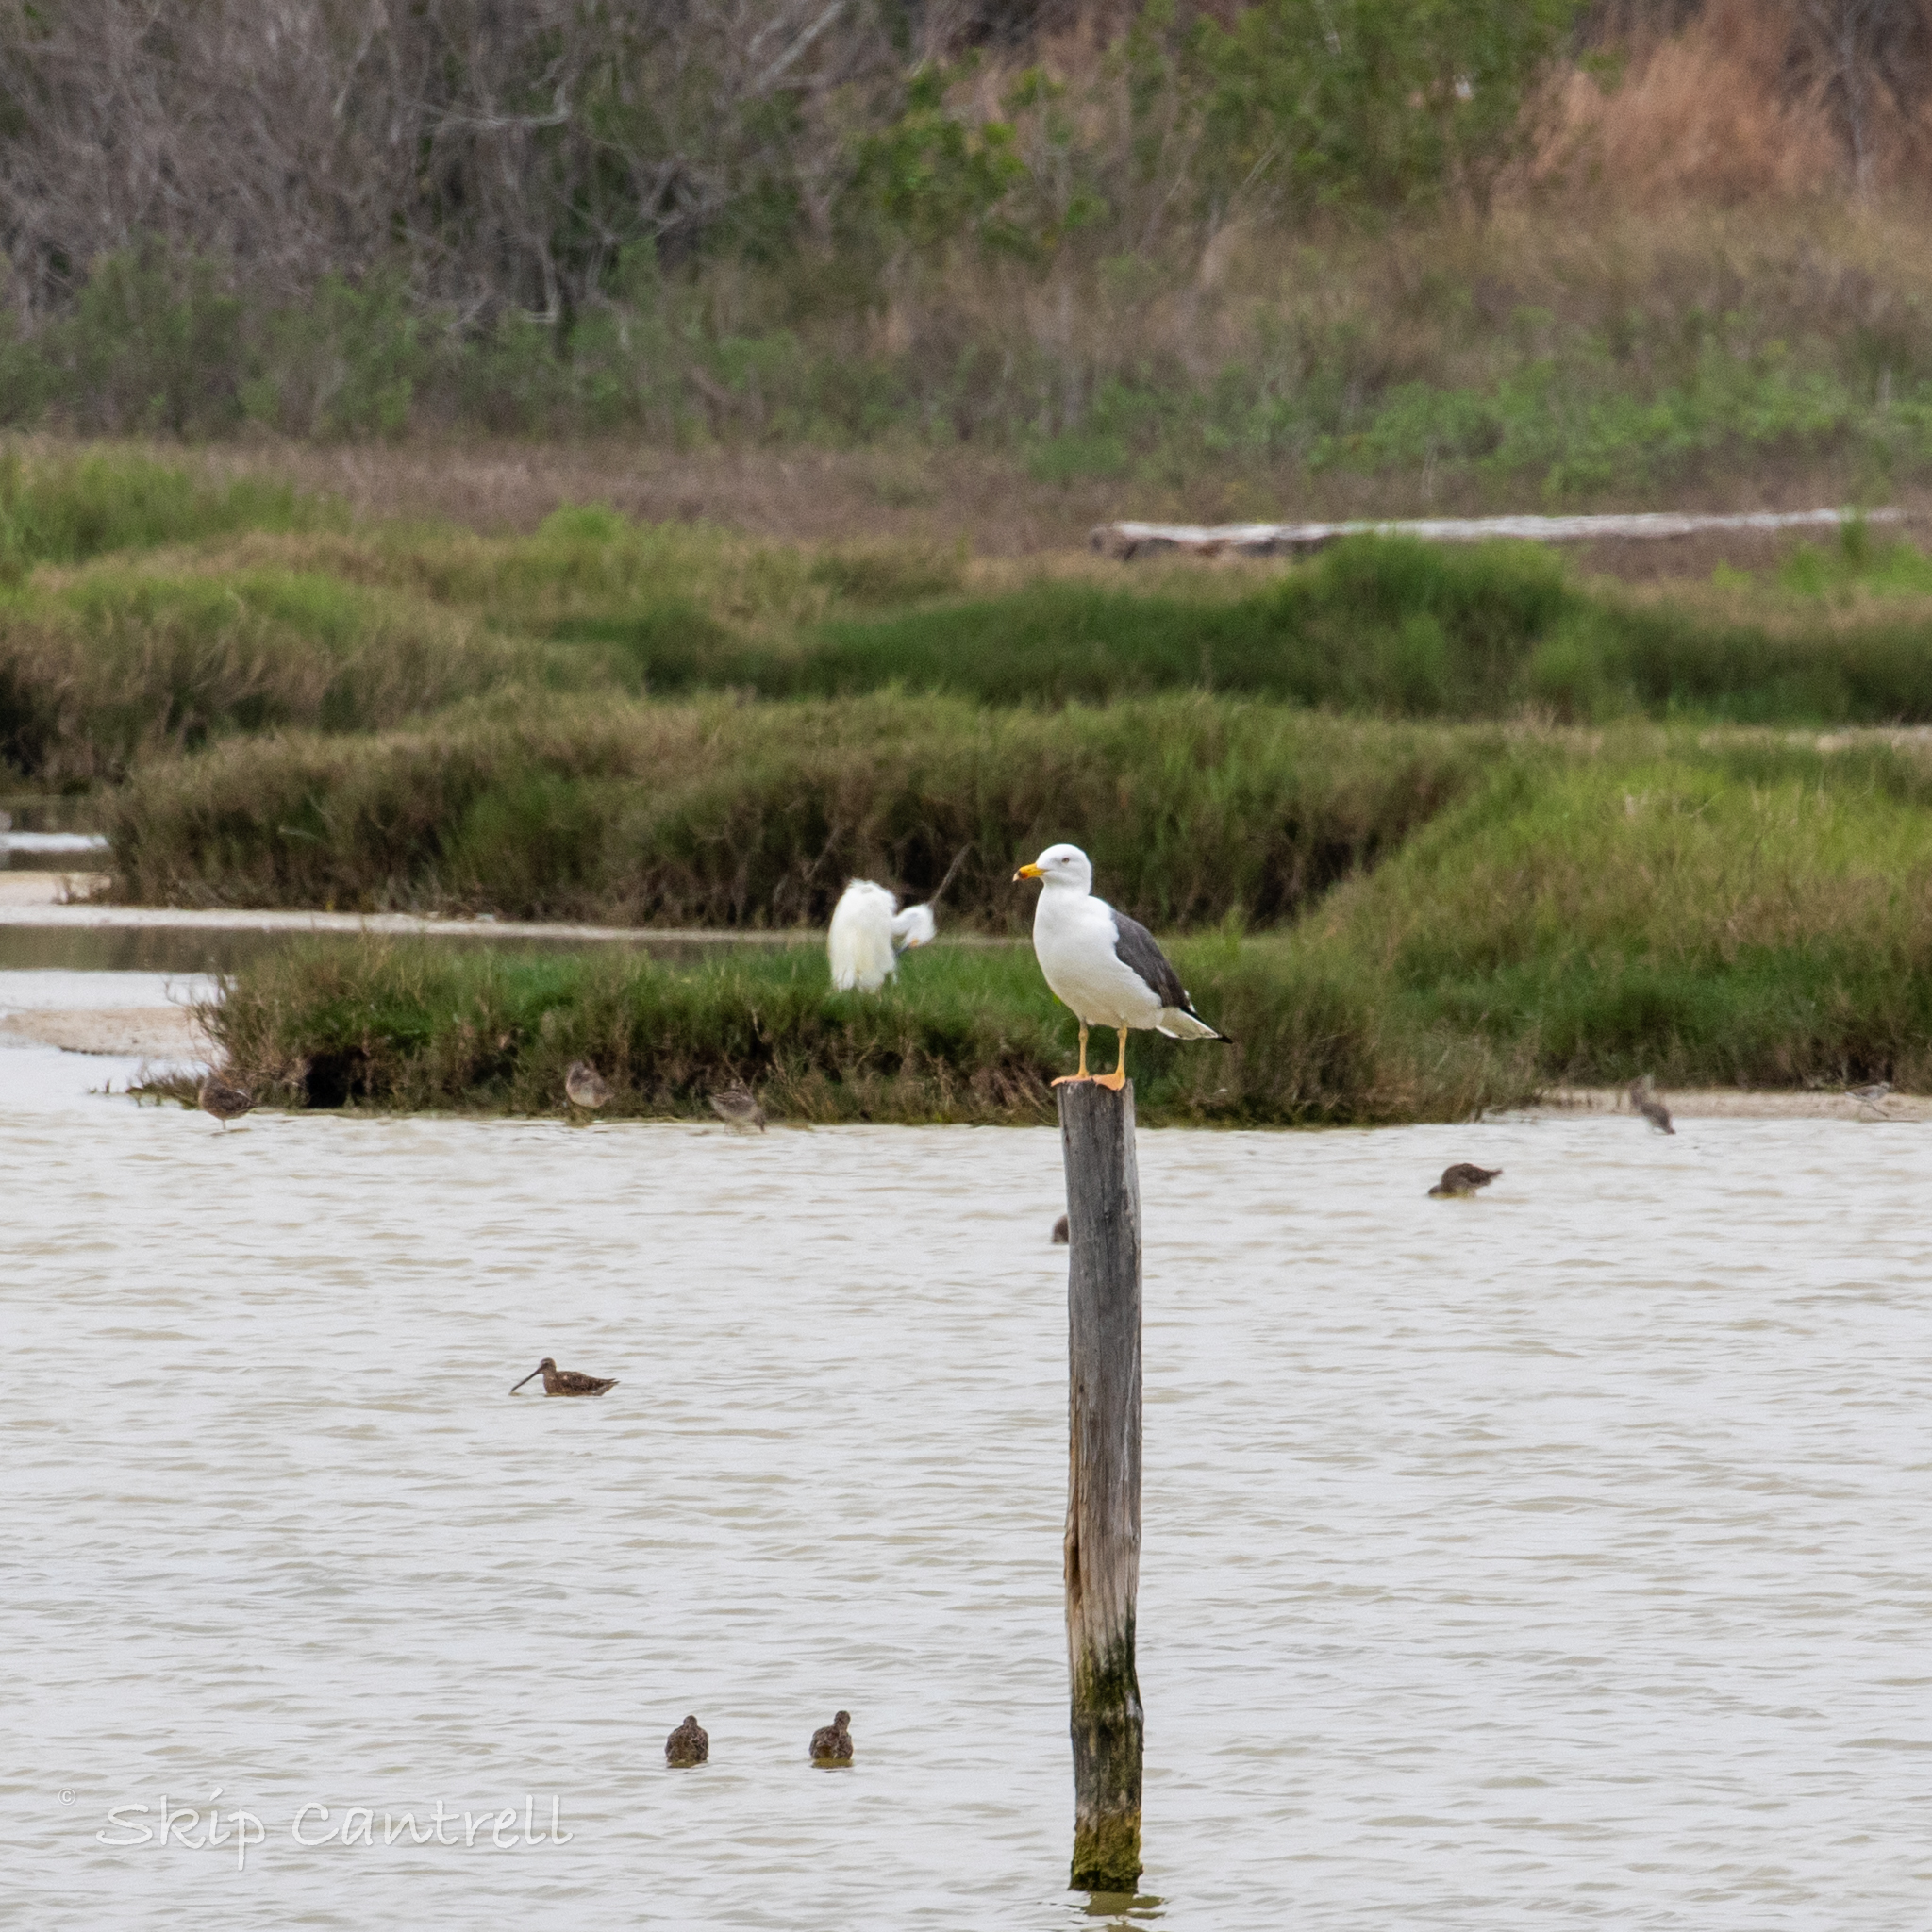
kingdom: Animalia
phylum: Chordata
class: Aves
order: Charadriiformes
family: Laridae
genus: Larus
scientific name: Larus fuscus
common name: Lesser black-backed gull
